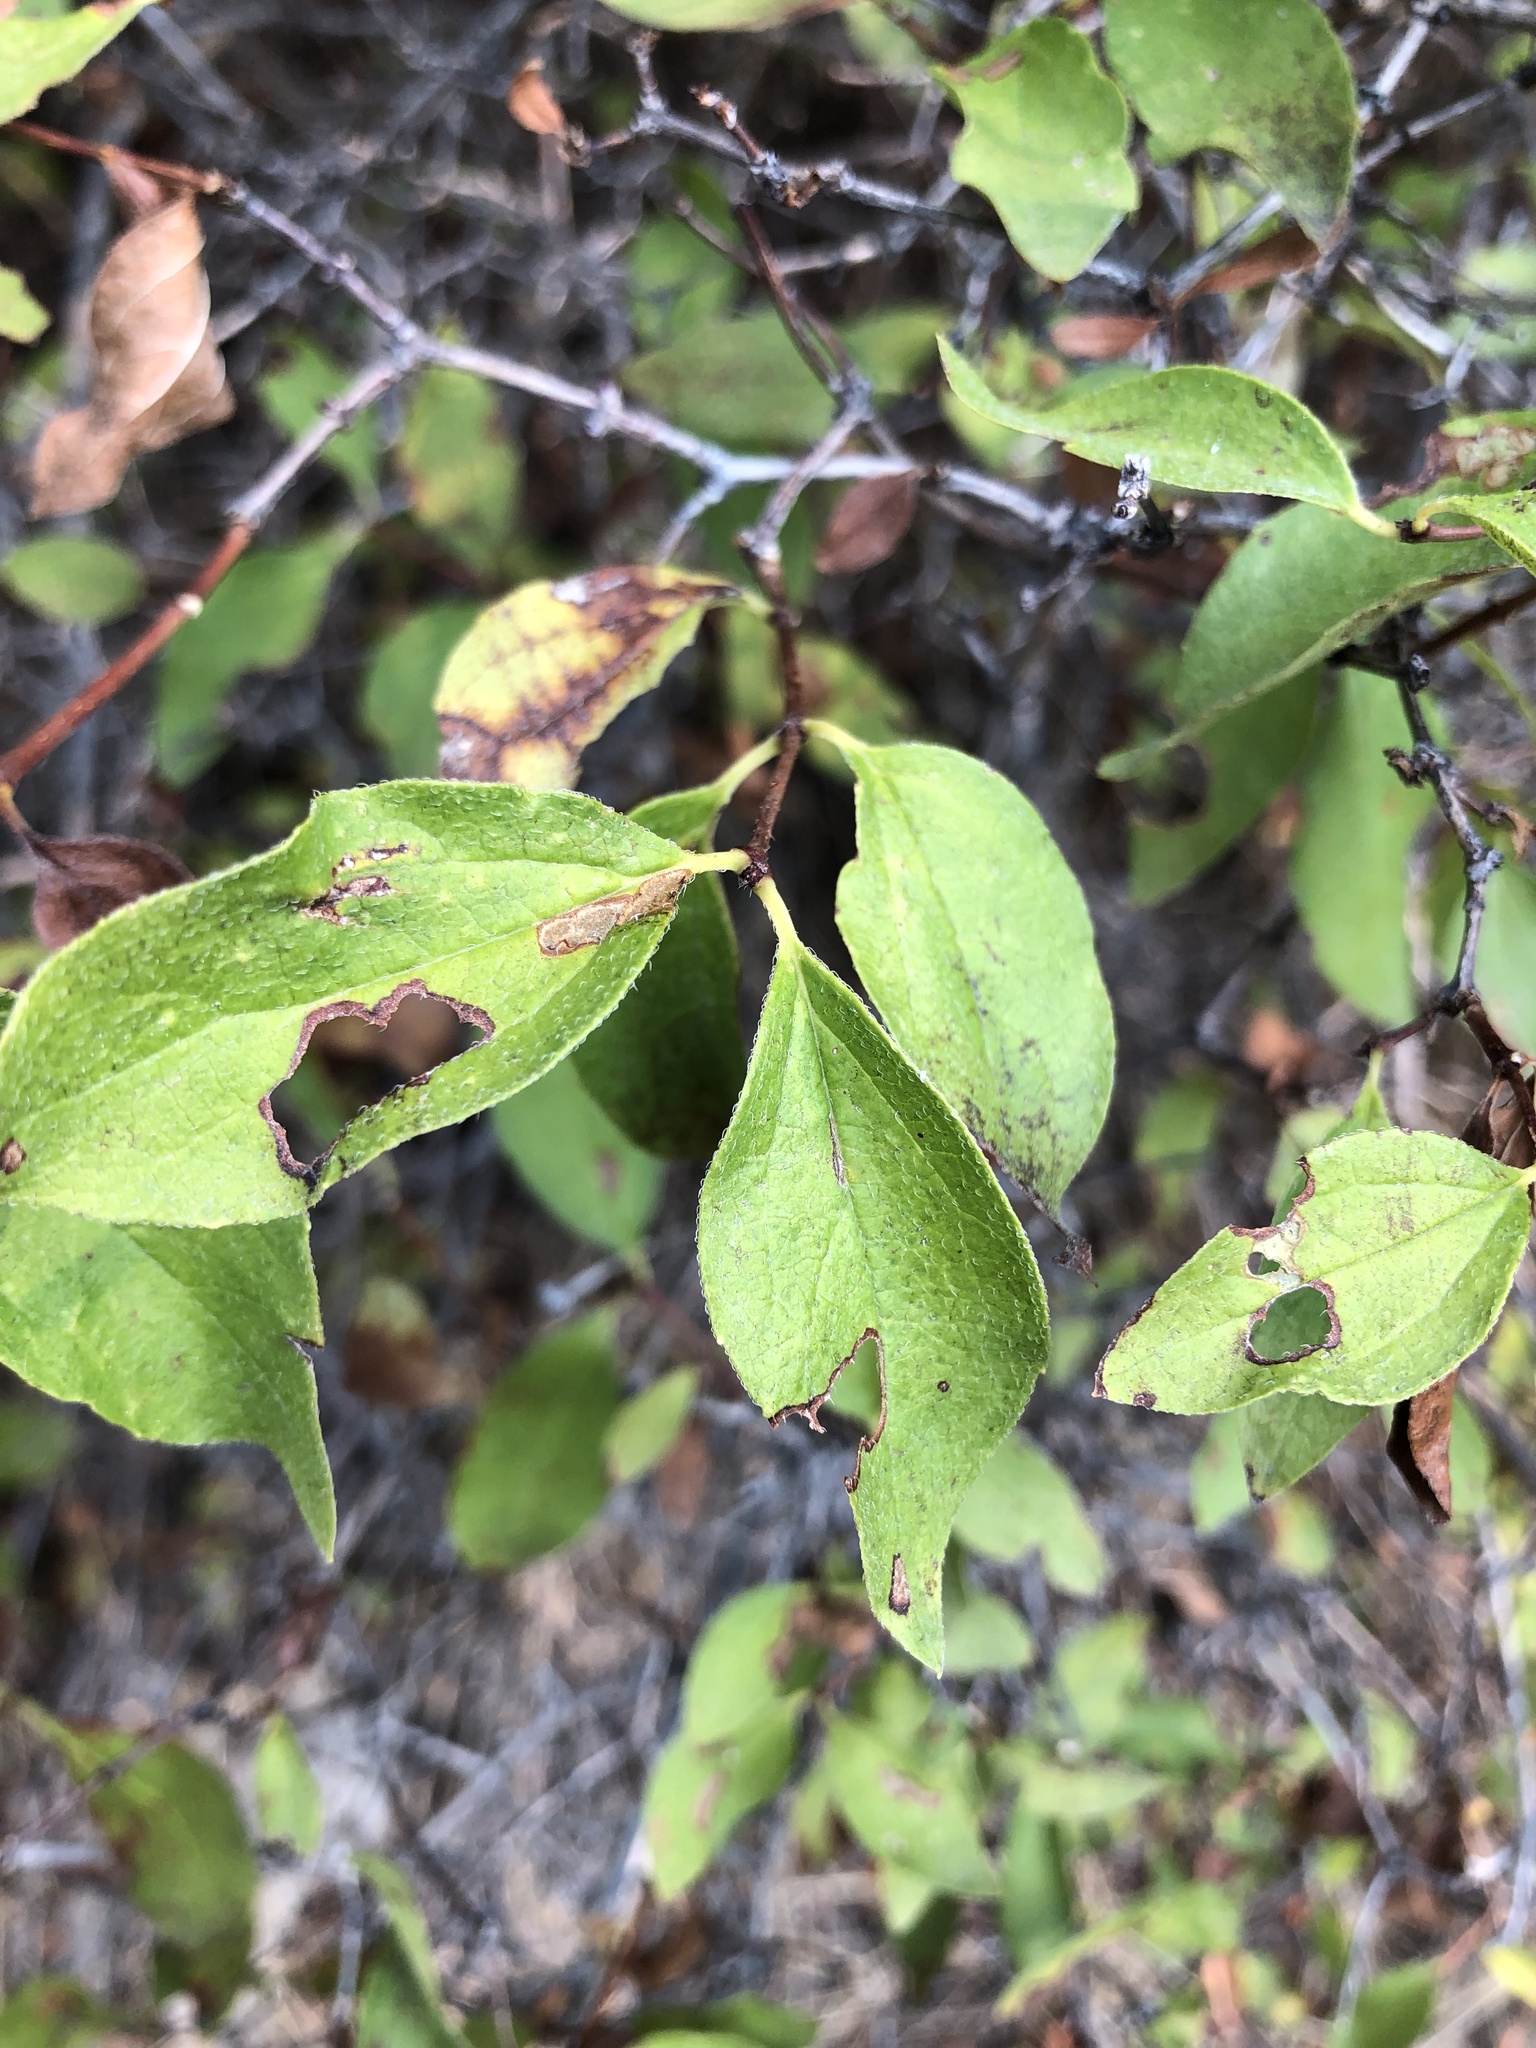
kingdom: Plantae
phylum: Tracheophyta
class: Magnoliopsida
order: Cornales
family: Hydrangeaceae
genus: Philadelphus
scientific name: Philadelphus lewisii
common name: Lewis's mock orange
